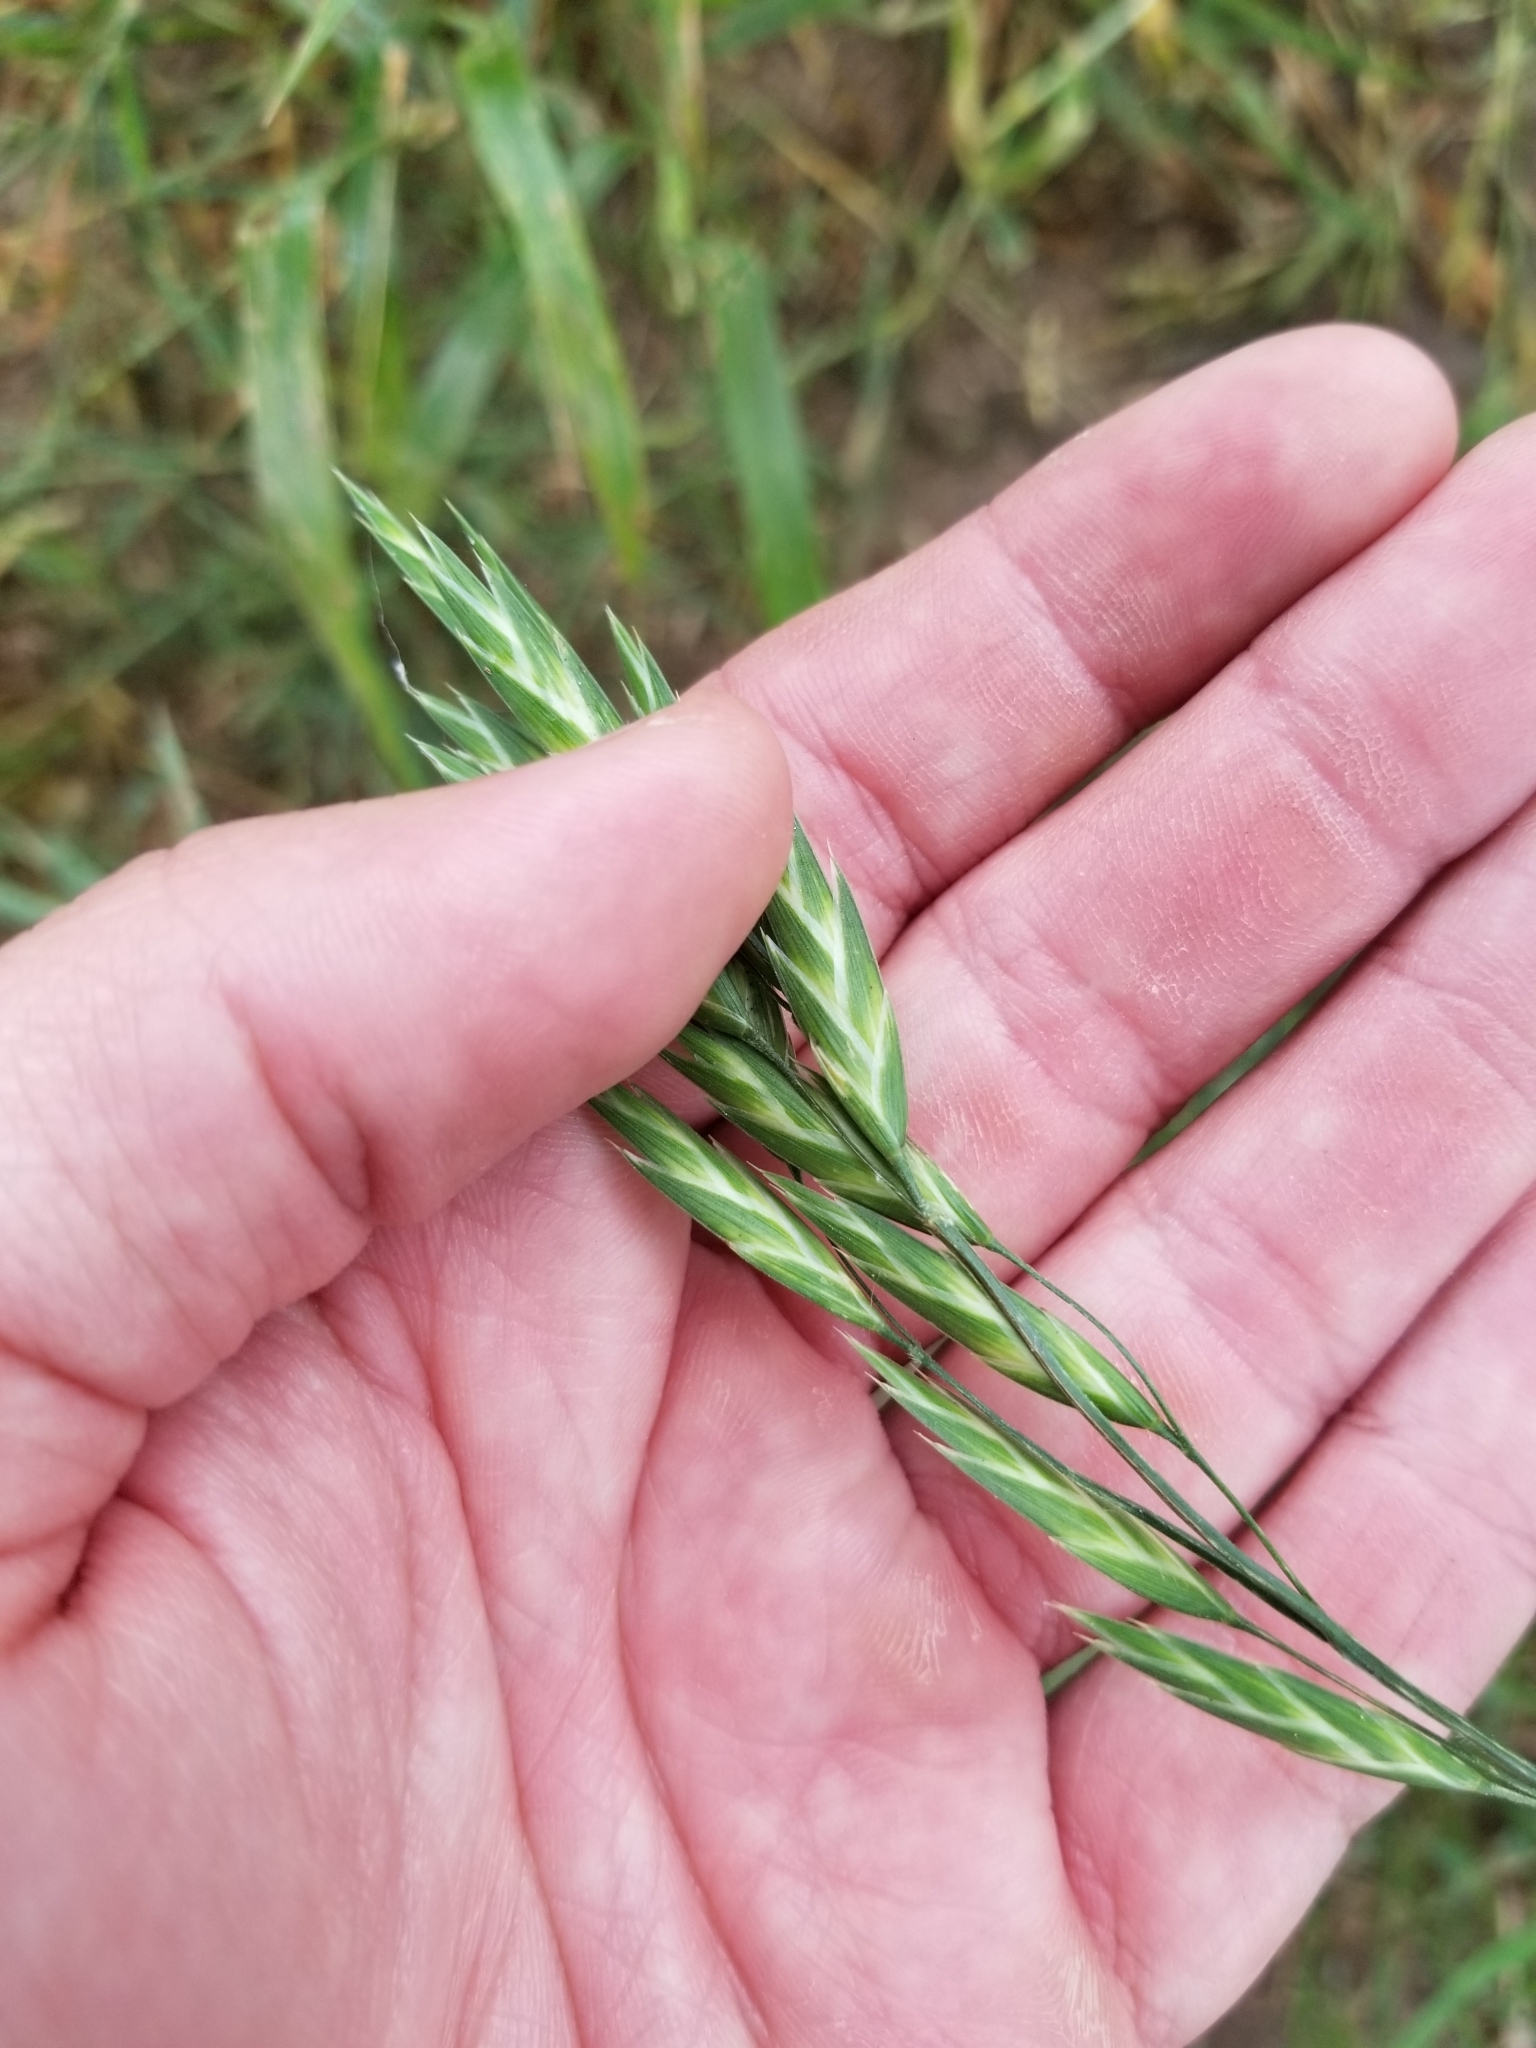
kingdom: Plantae
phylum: Tracheophyta
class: Liliopsida
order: Poales
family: Poaceae
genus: Bromus
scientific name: Bromus catharticus
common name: Rescuegrass
